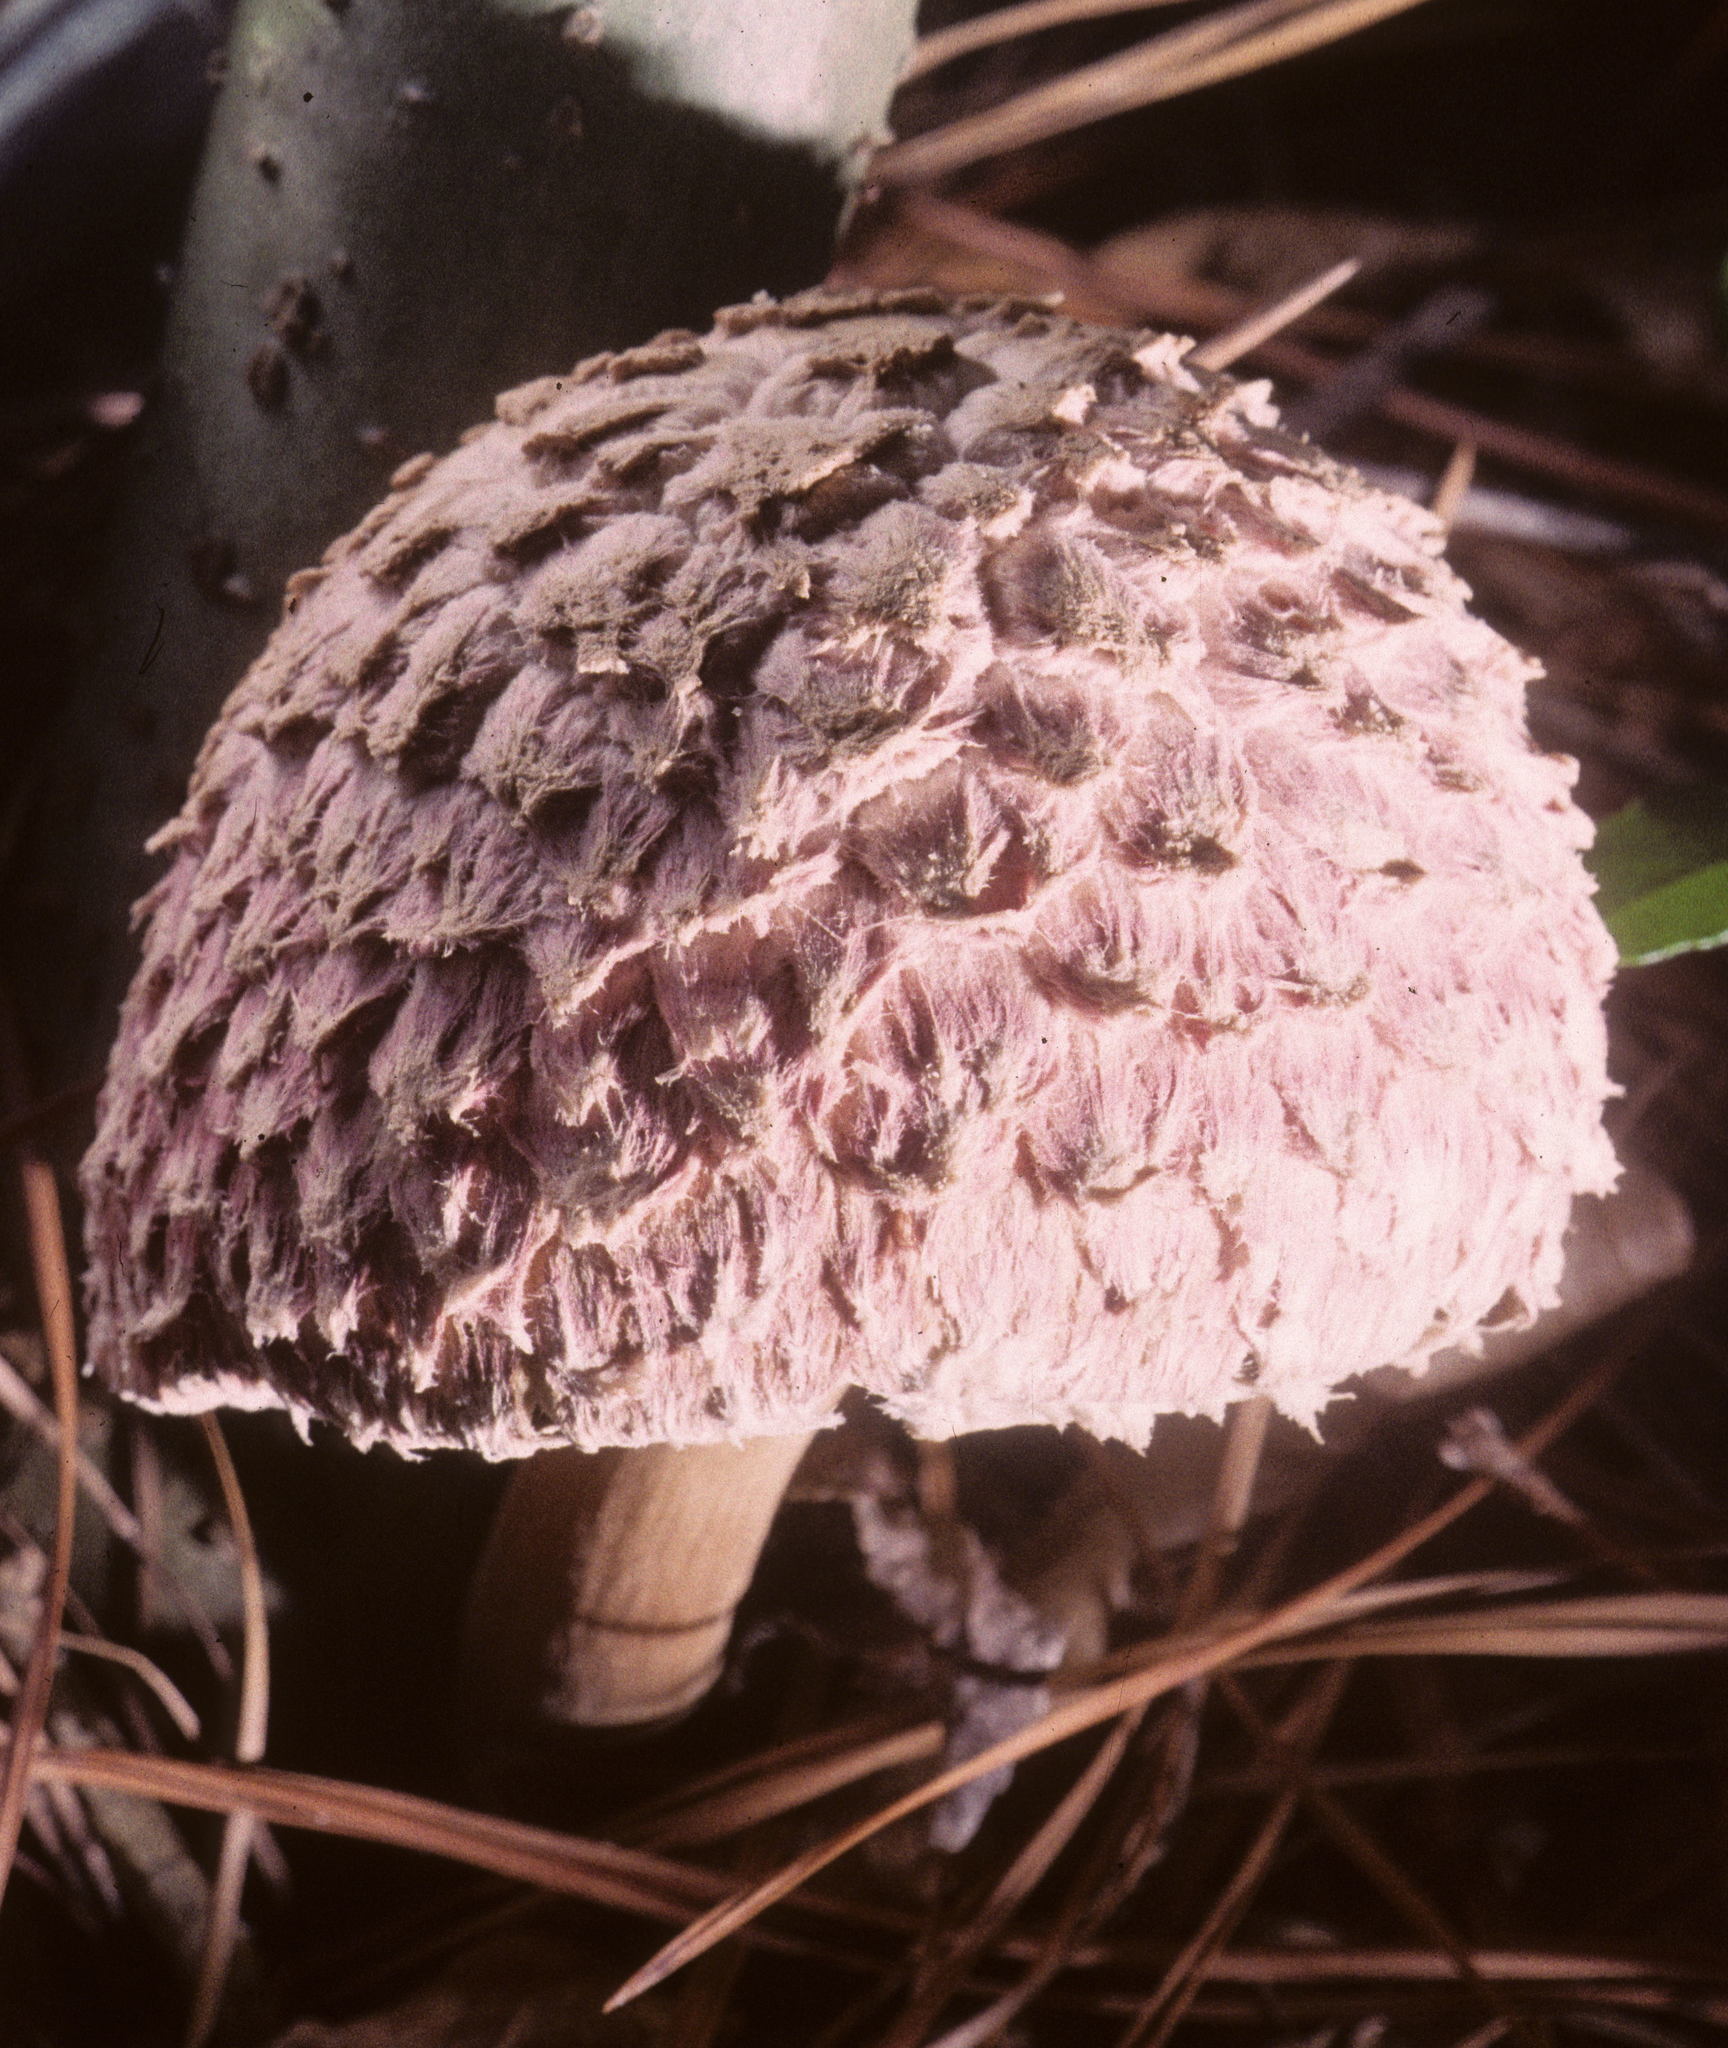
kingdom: Fungi
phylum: Basidiomycota
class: Agaricomycetes
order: Boletales
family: Boletaceae
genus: Boletellus
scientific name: Boletellus ananas
